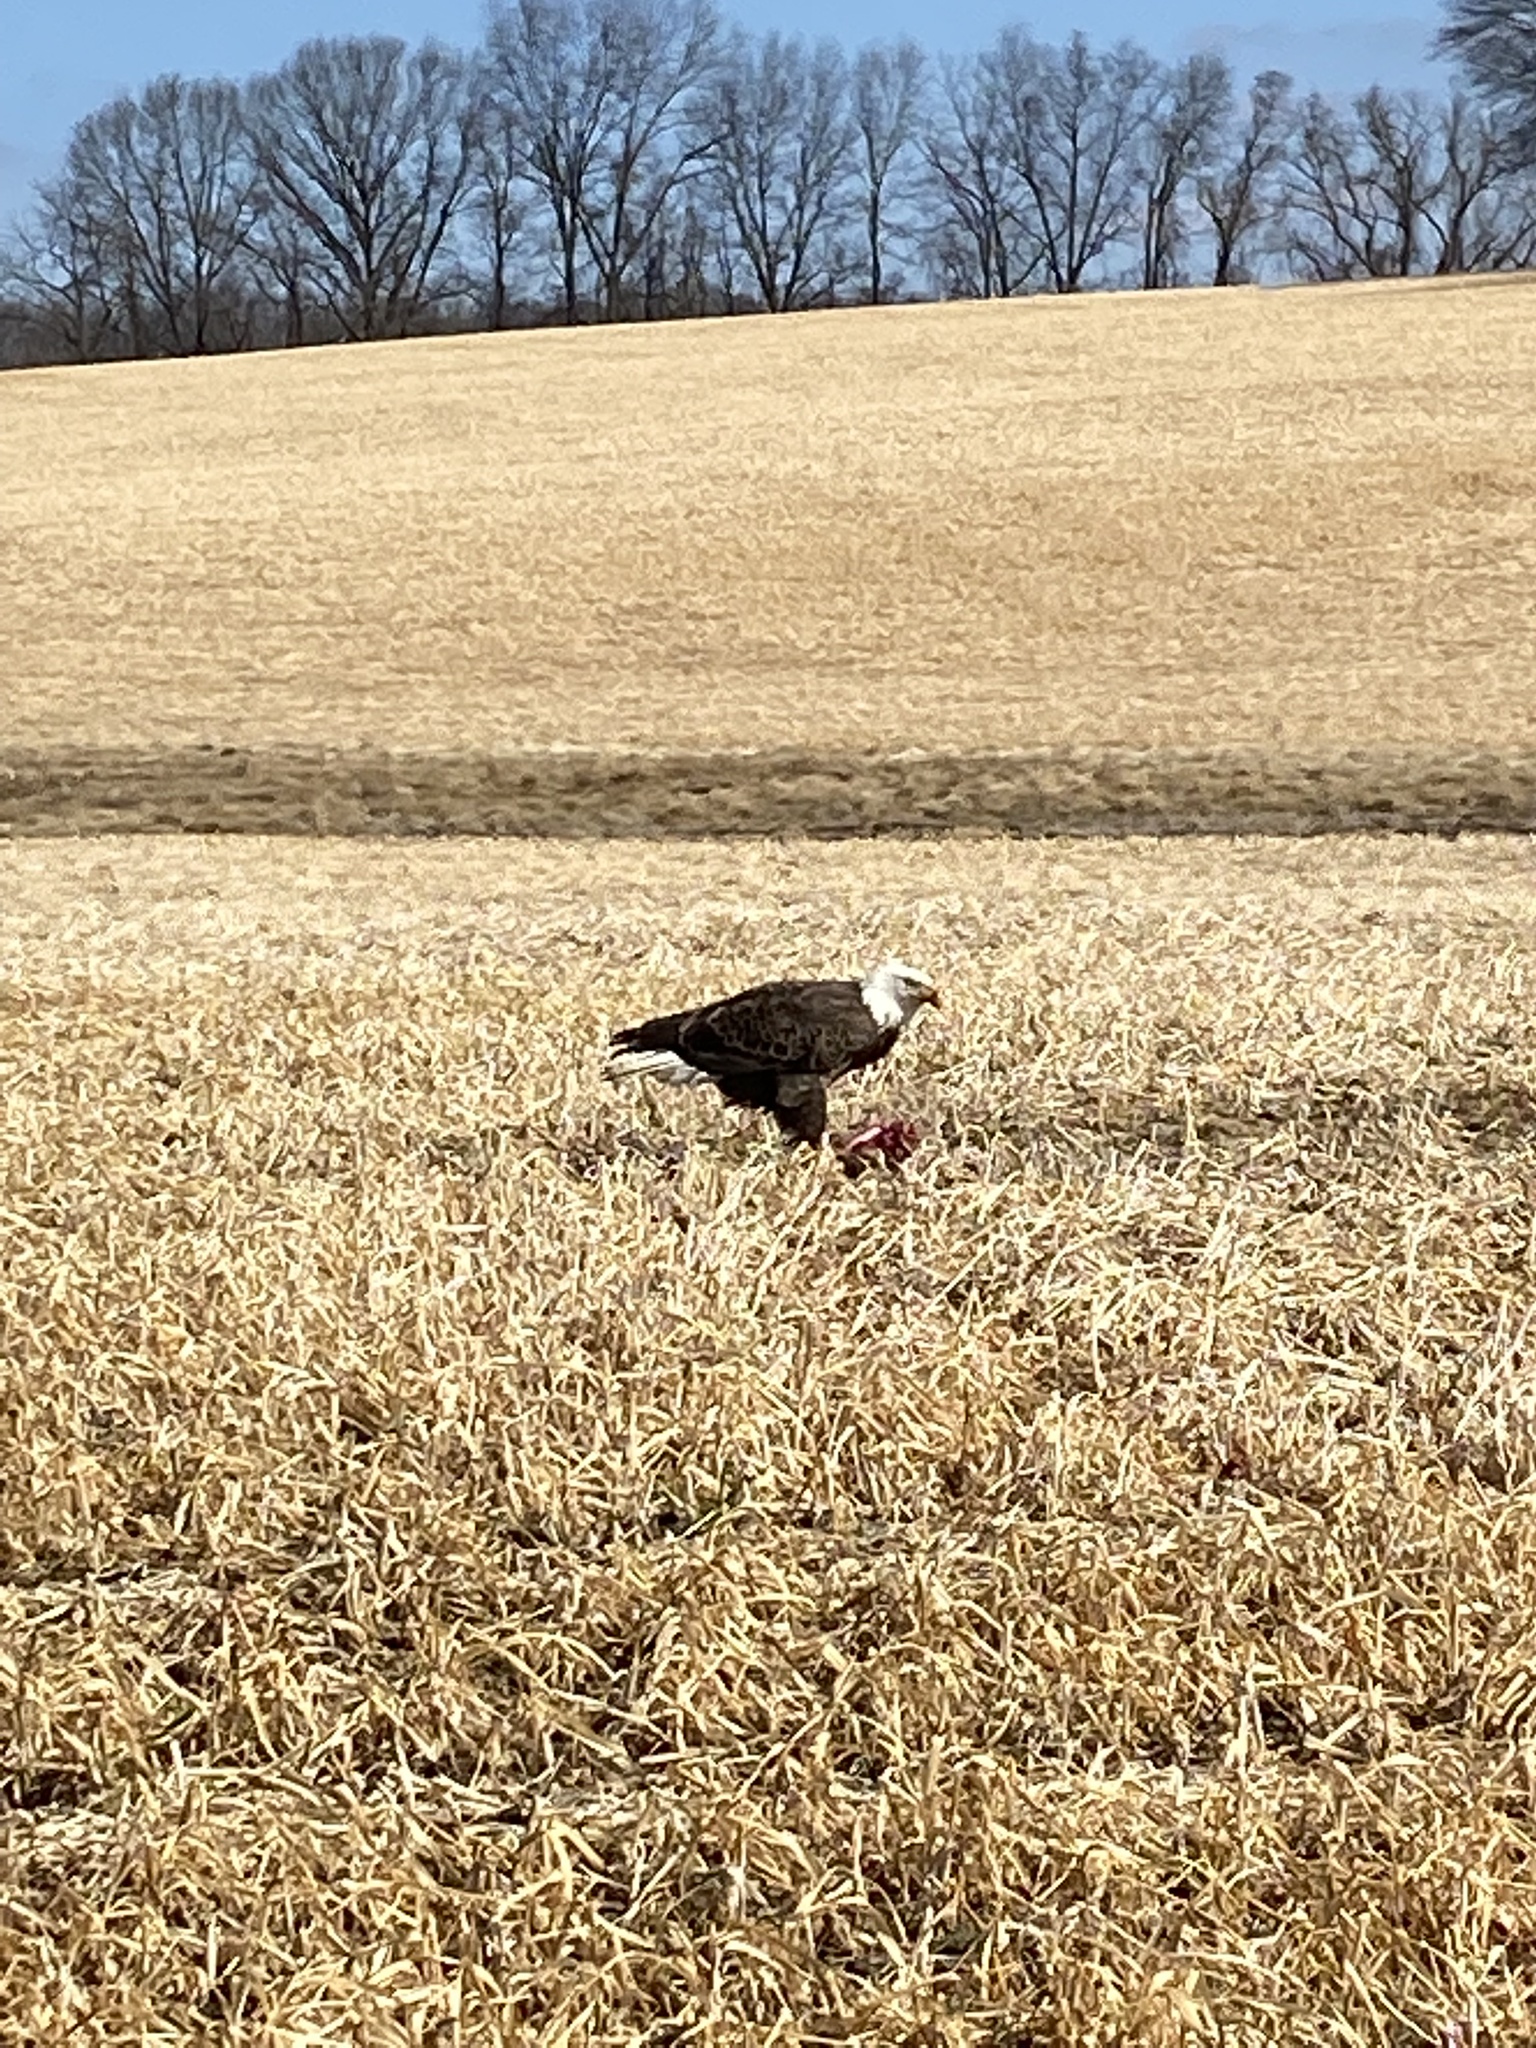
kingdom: Animalia
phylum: Chordata
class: Aves
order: Accipitriformes
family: Accipitridae
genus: Haliaeetus
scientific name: Haliaeetus leucocephalus
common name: Bald eagle
